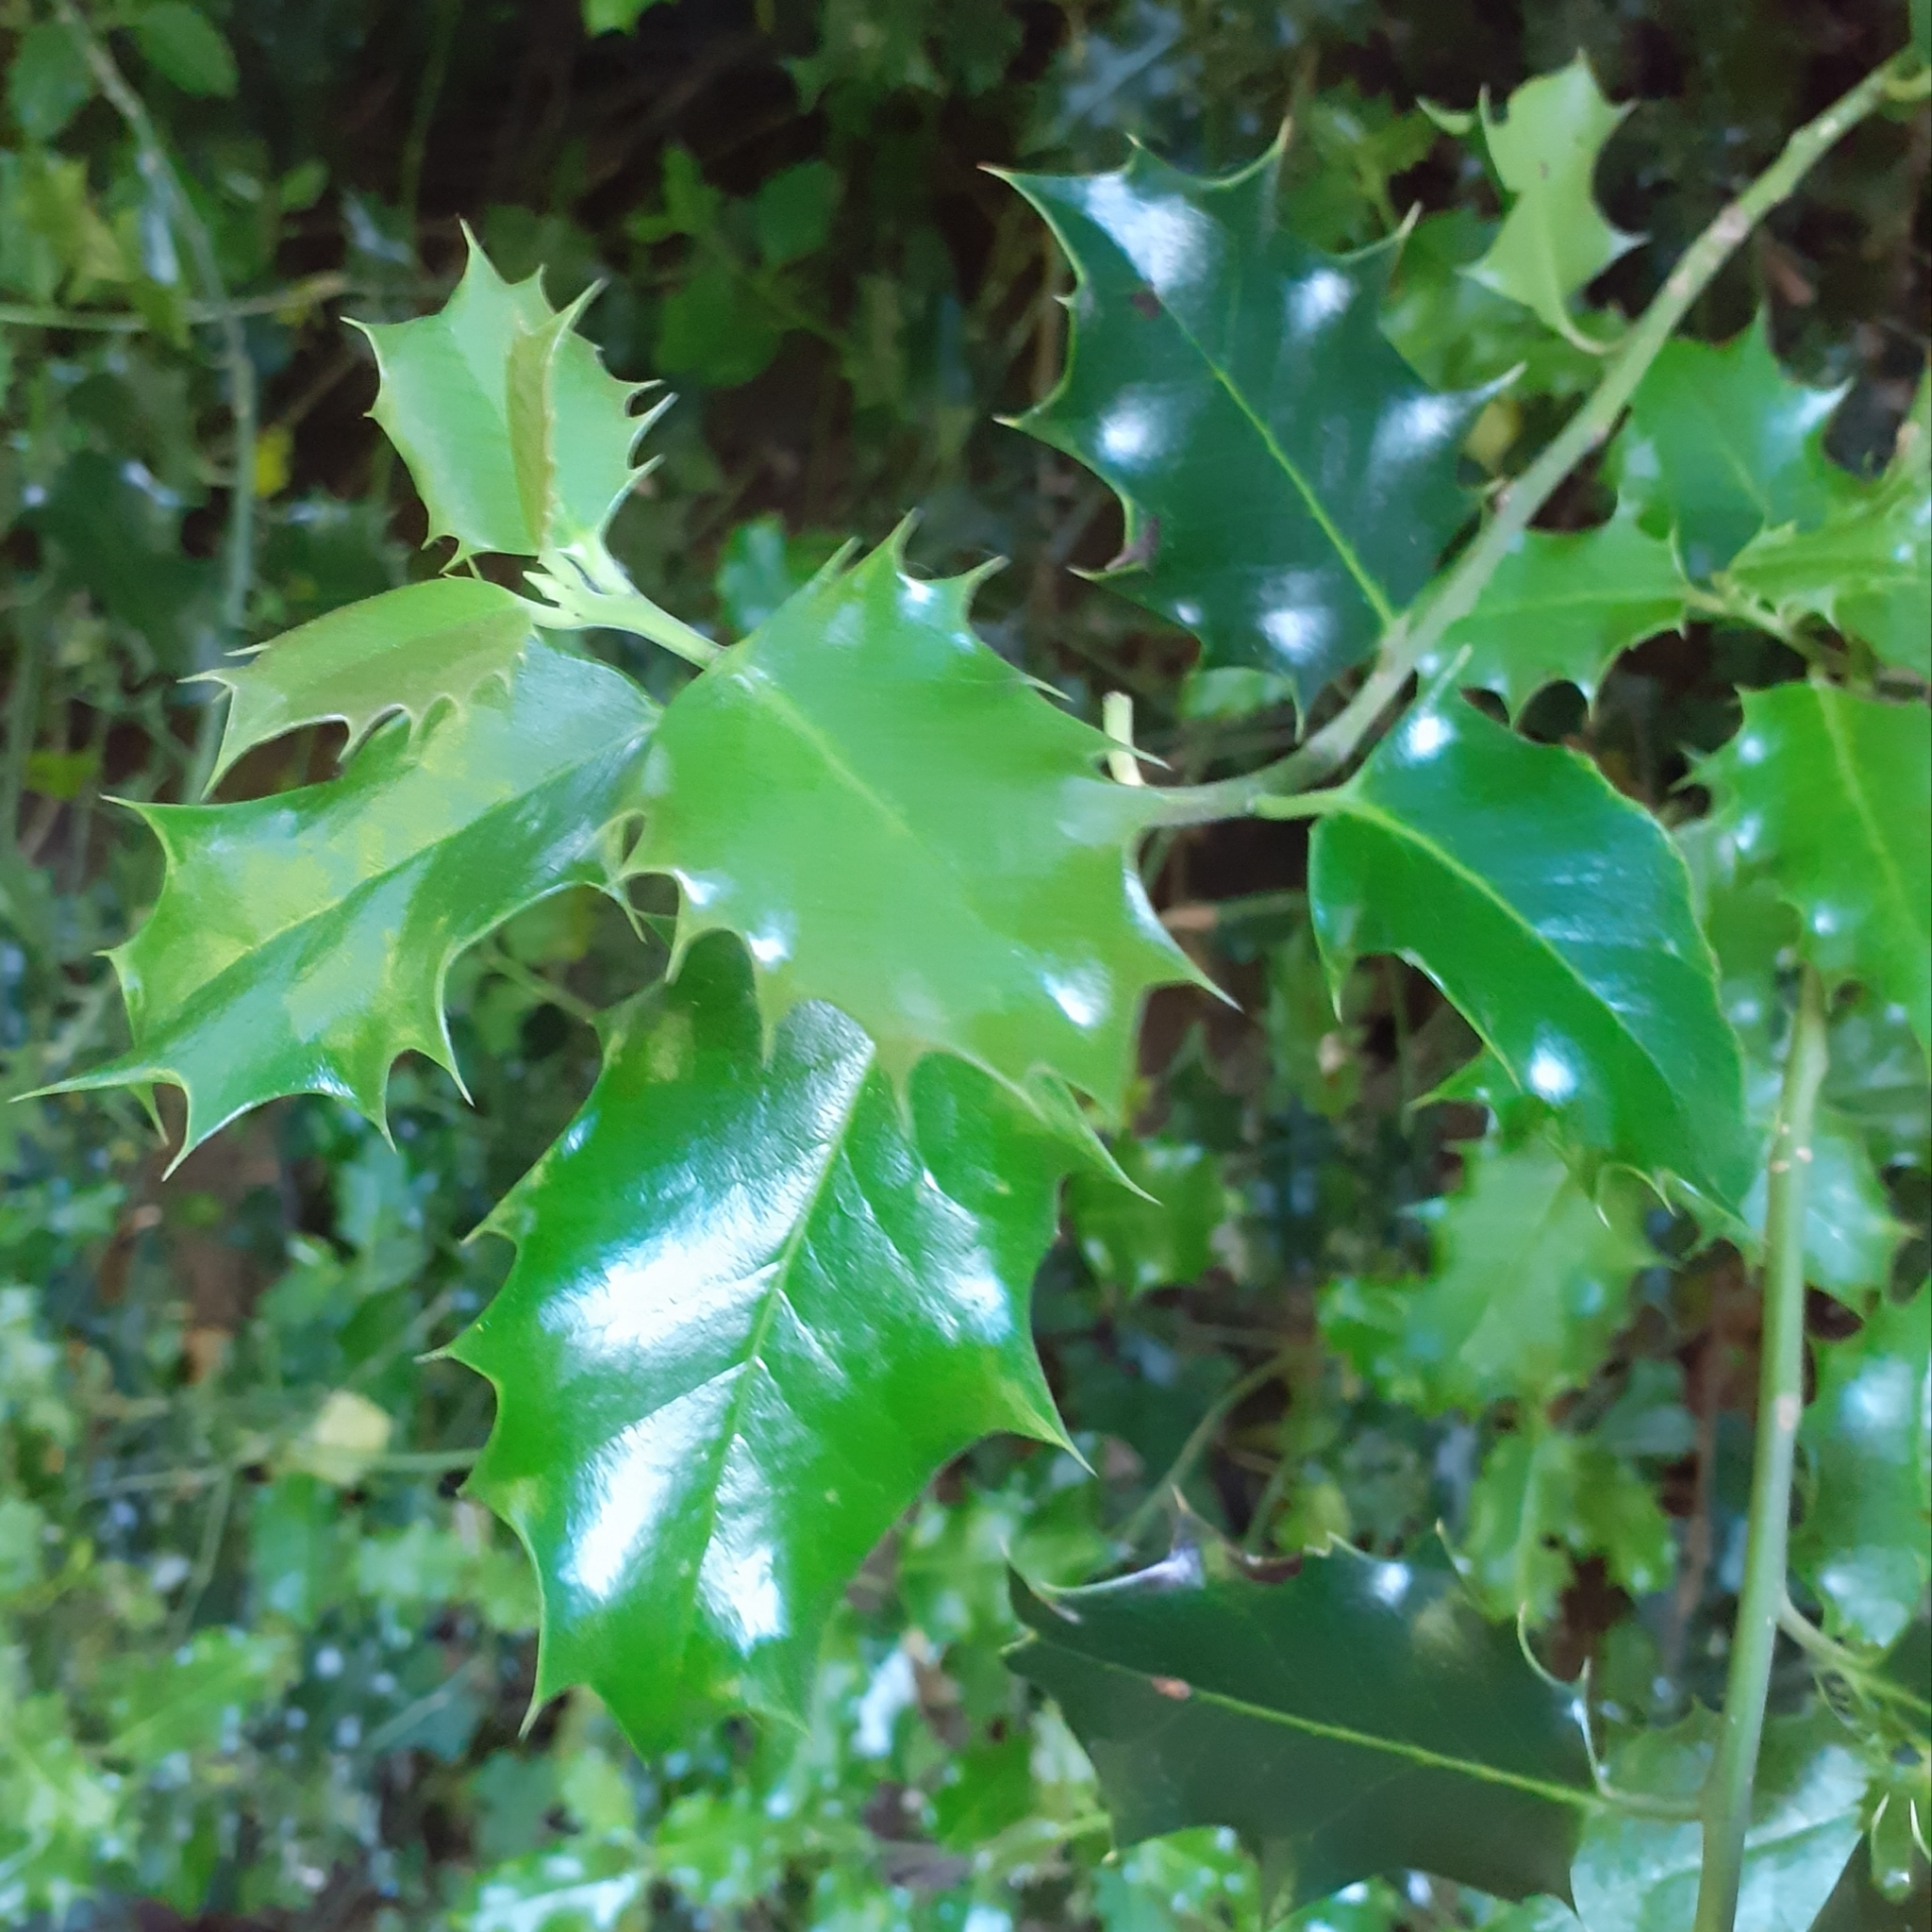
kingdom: Plantae
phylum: Tracheophyta
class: Magnoliopsida
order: Aquifoliales
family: Aquifoliaceae
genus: Ilex
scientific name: Ilex aquifolium
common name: English holly
